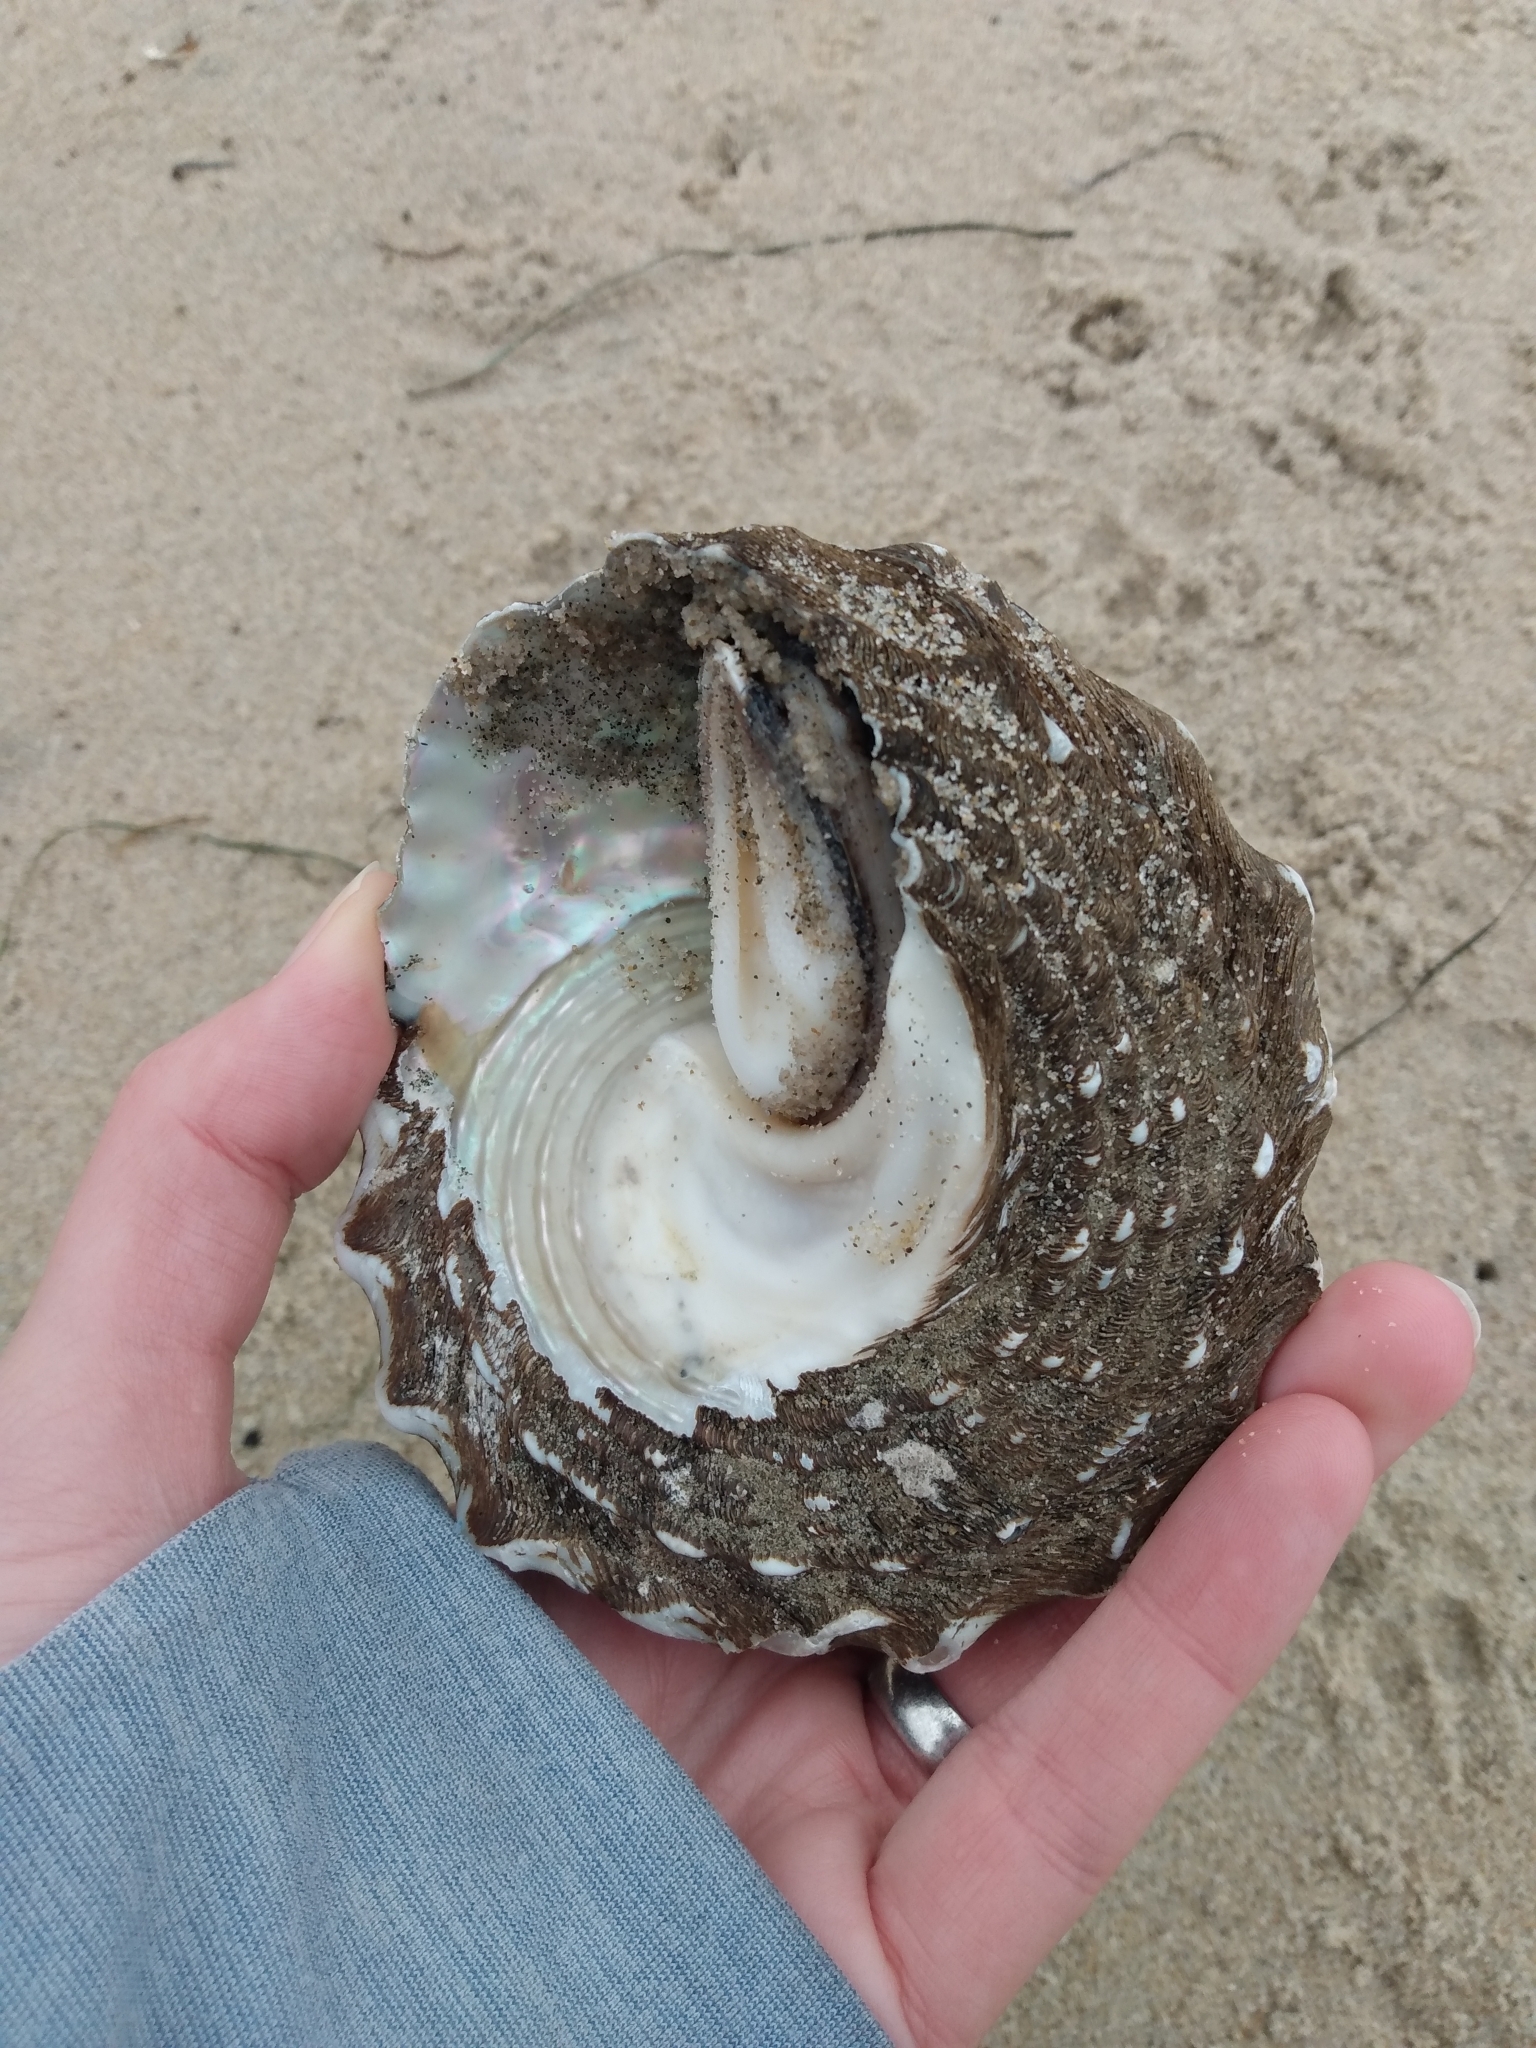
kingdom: Animalia
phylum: Mollusca
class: Gastropoda
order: Trochida
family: Turbinidae
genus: Megastraea
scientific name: Megastraea undosa
